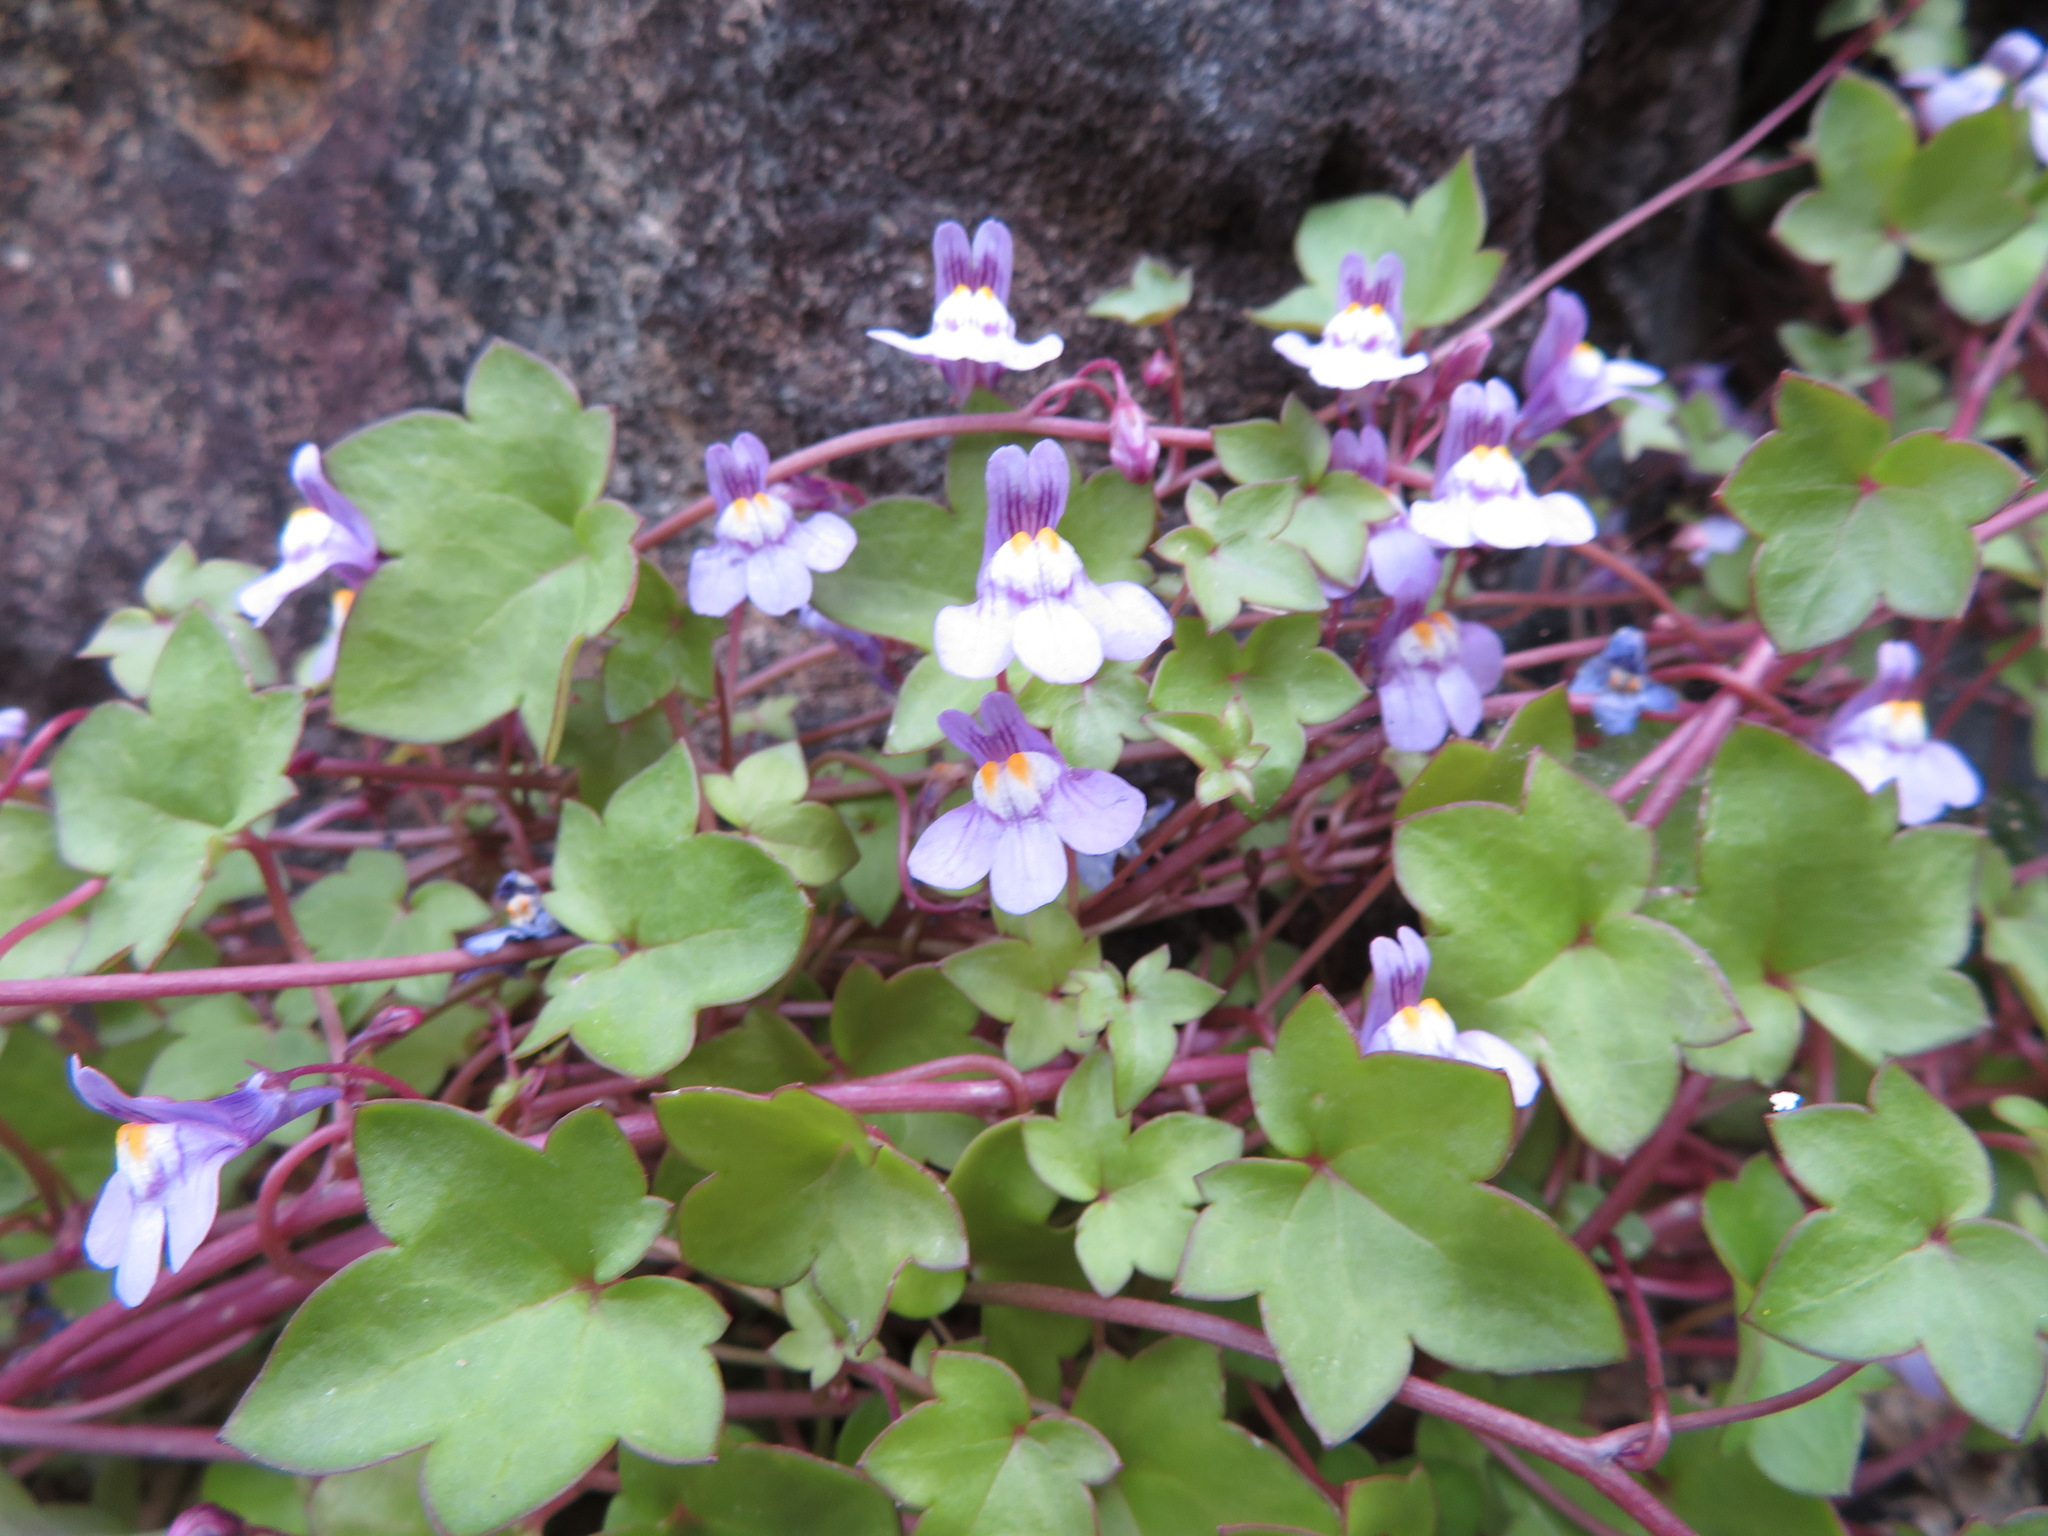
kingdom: Plantae
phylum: Tracheophyta
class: Magnoliopsida
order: Lamiales
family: Plantaginaceae
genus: Cymbalaria
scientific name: Cymbalaria muralis
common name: Ivy-leaved toadflax
